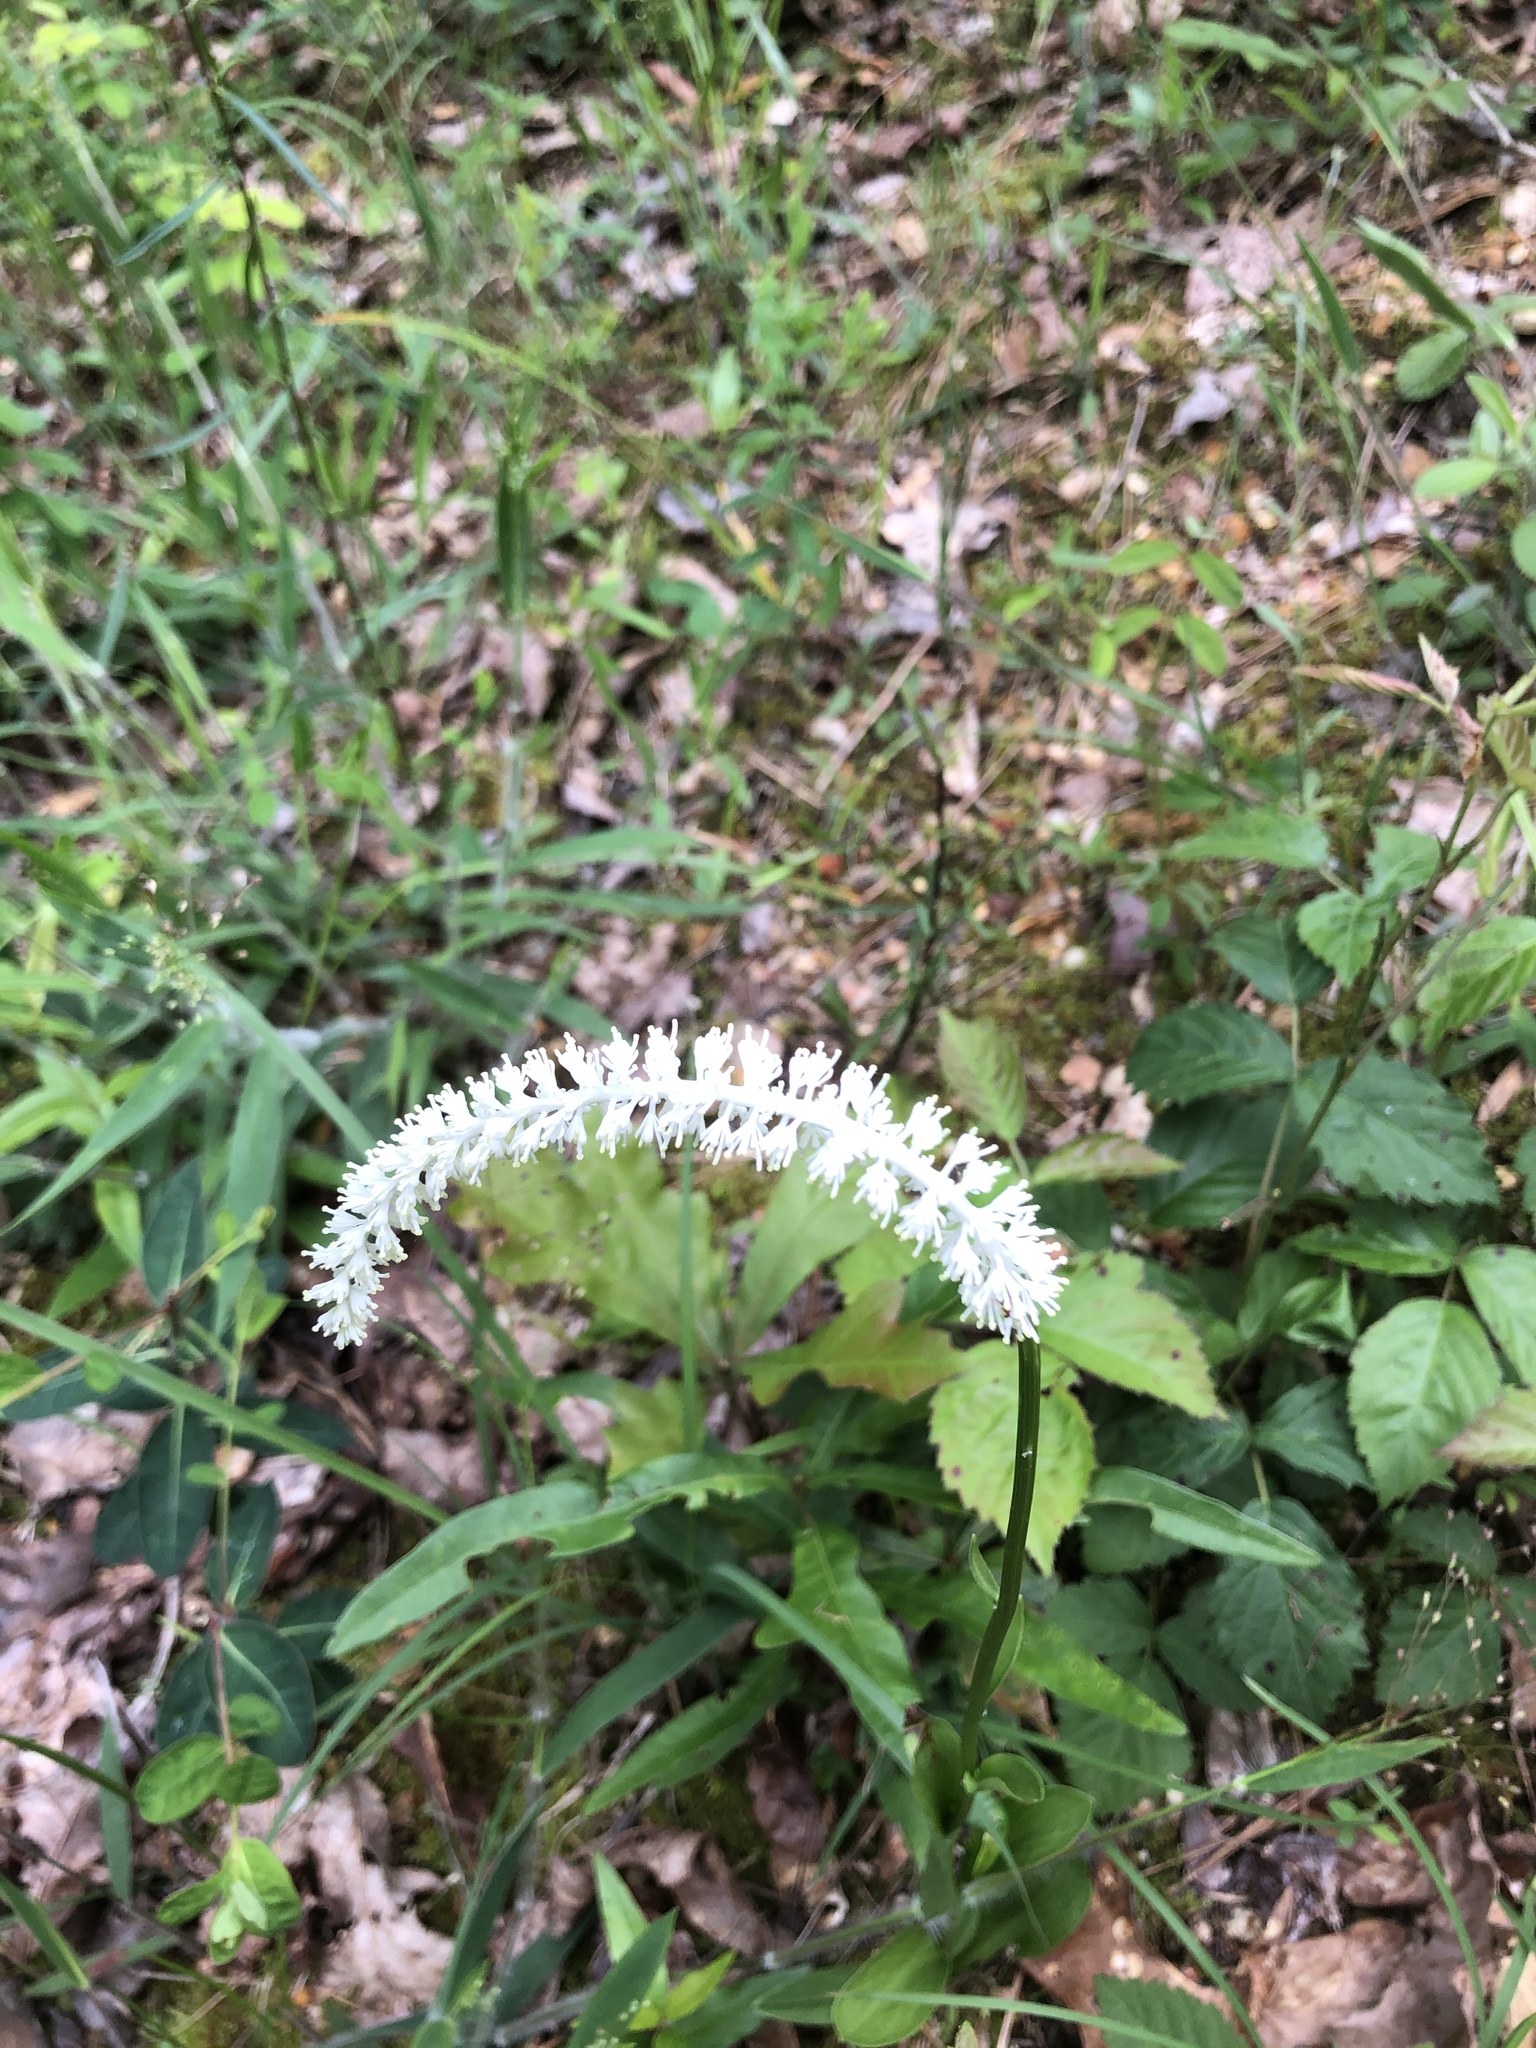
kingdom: Plantae
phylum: Tracheophyta
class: Liliopsida
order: Liliales
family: Melanthiaceae
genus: Chamaelirium
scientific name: Chamaelirium luteum
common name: Fairy-wand
